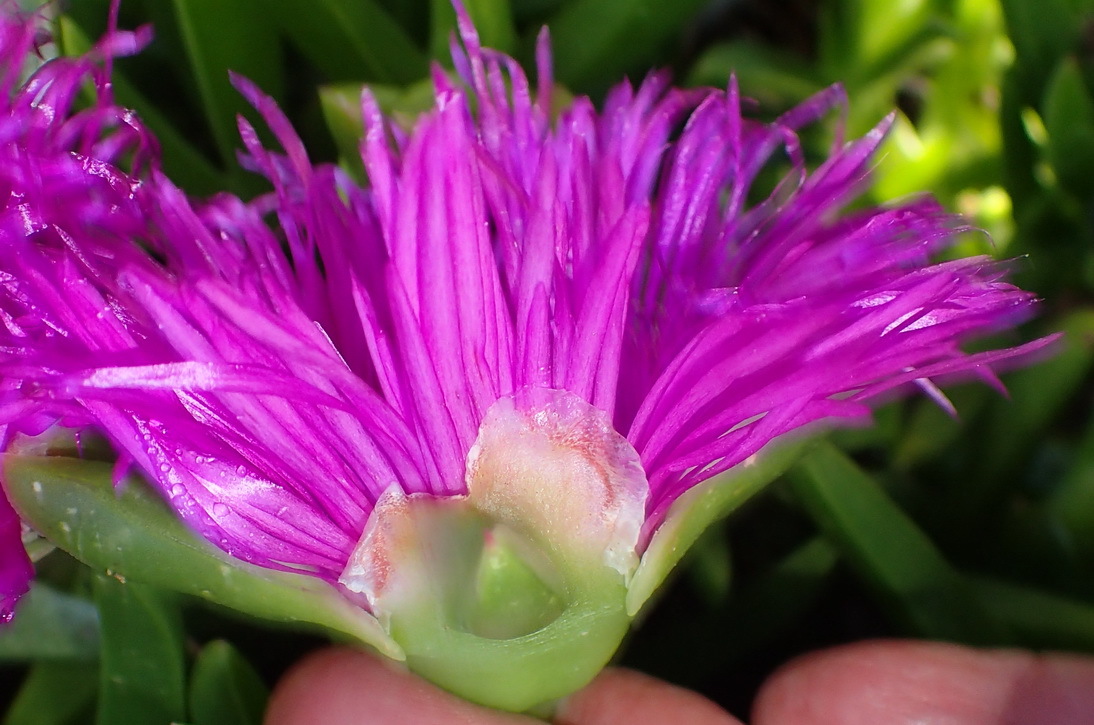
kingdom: Plantae
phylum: Tracheophyta
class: Magnoliopsida
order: Caryophyllales
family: Aizoaceae
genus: Carpobrotus
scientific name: Carpobrotus deliciosus
